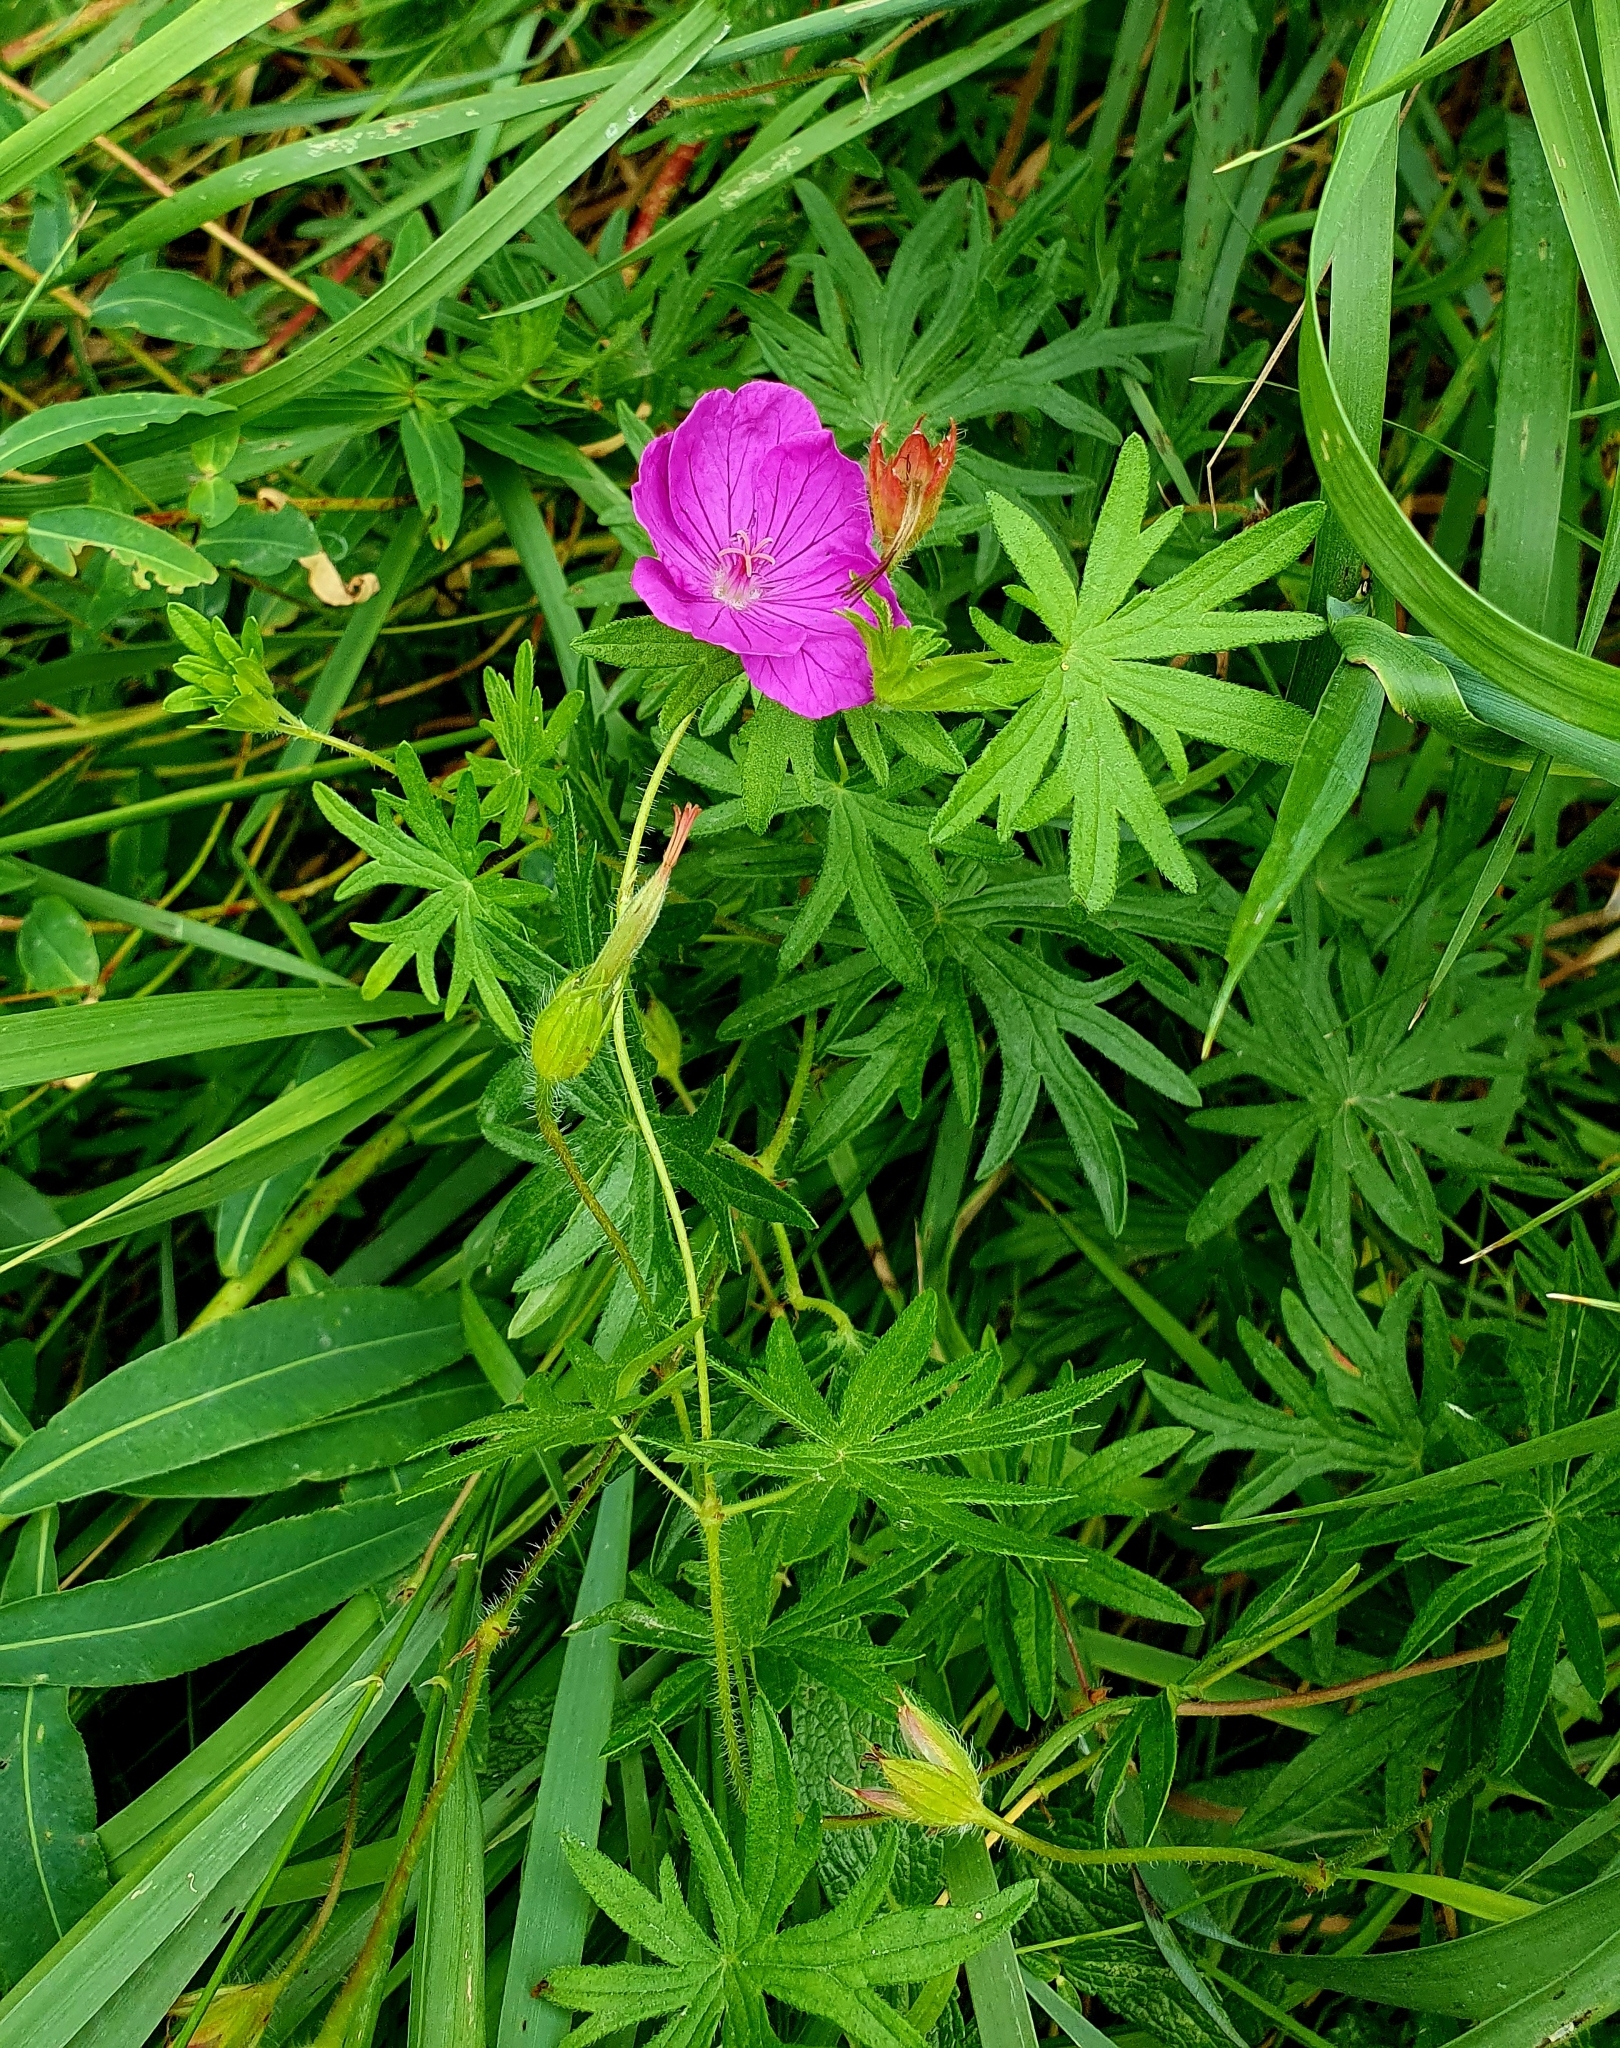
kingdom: Plantae
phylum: Tracheophyta
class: Magnoliopsida
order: Geraniales
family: Geraniaceae
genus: Geranium
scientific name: Geranium sanguineum
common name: Bloody crane's-bill
